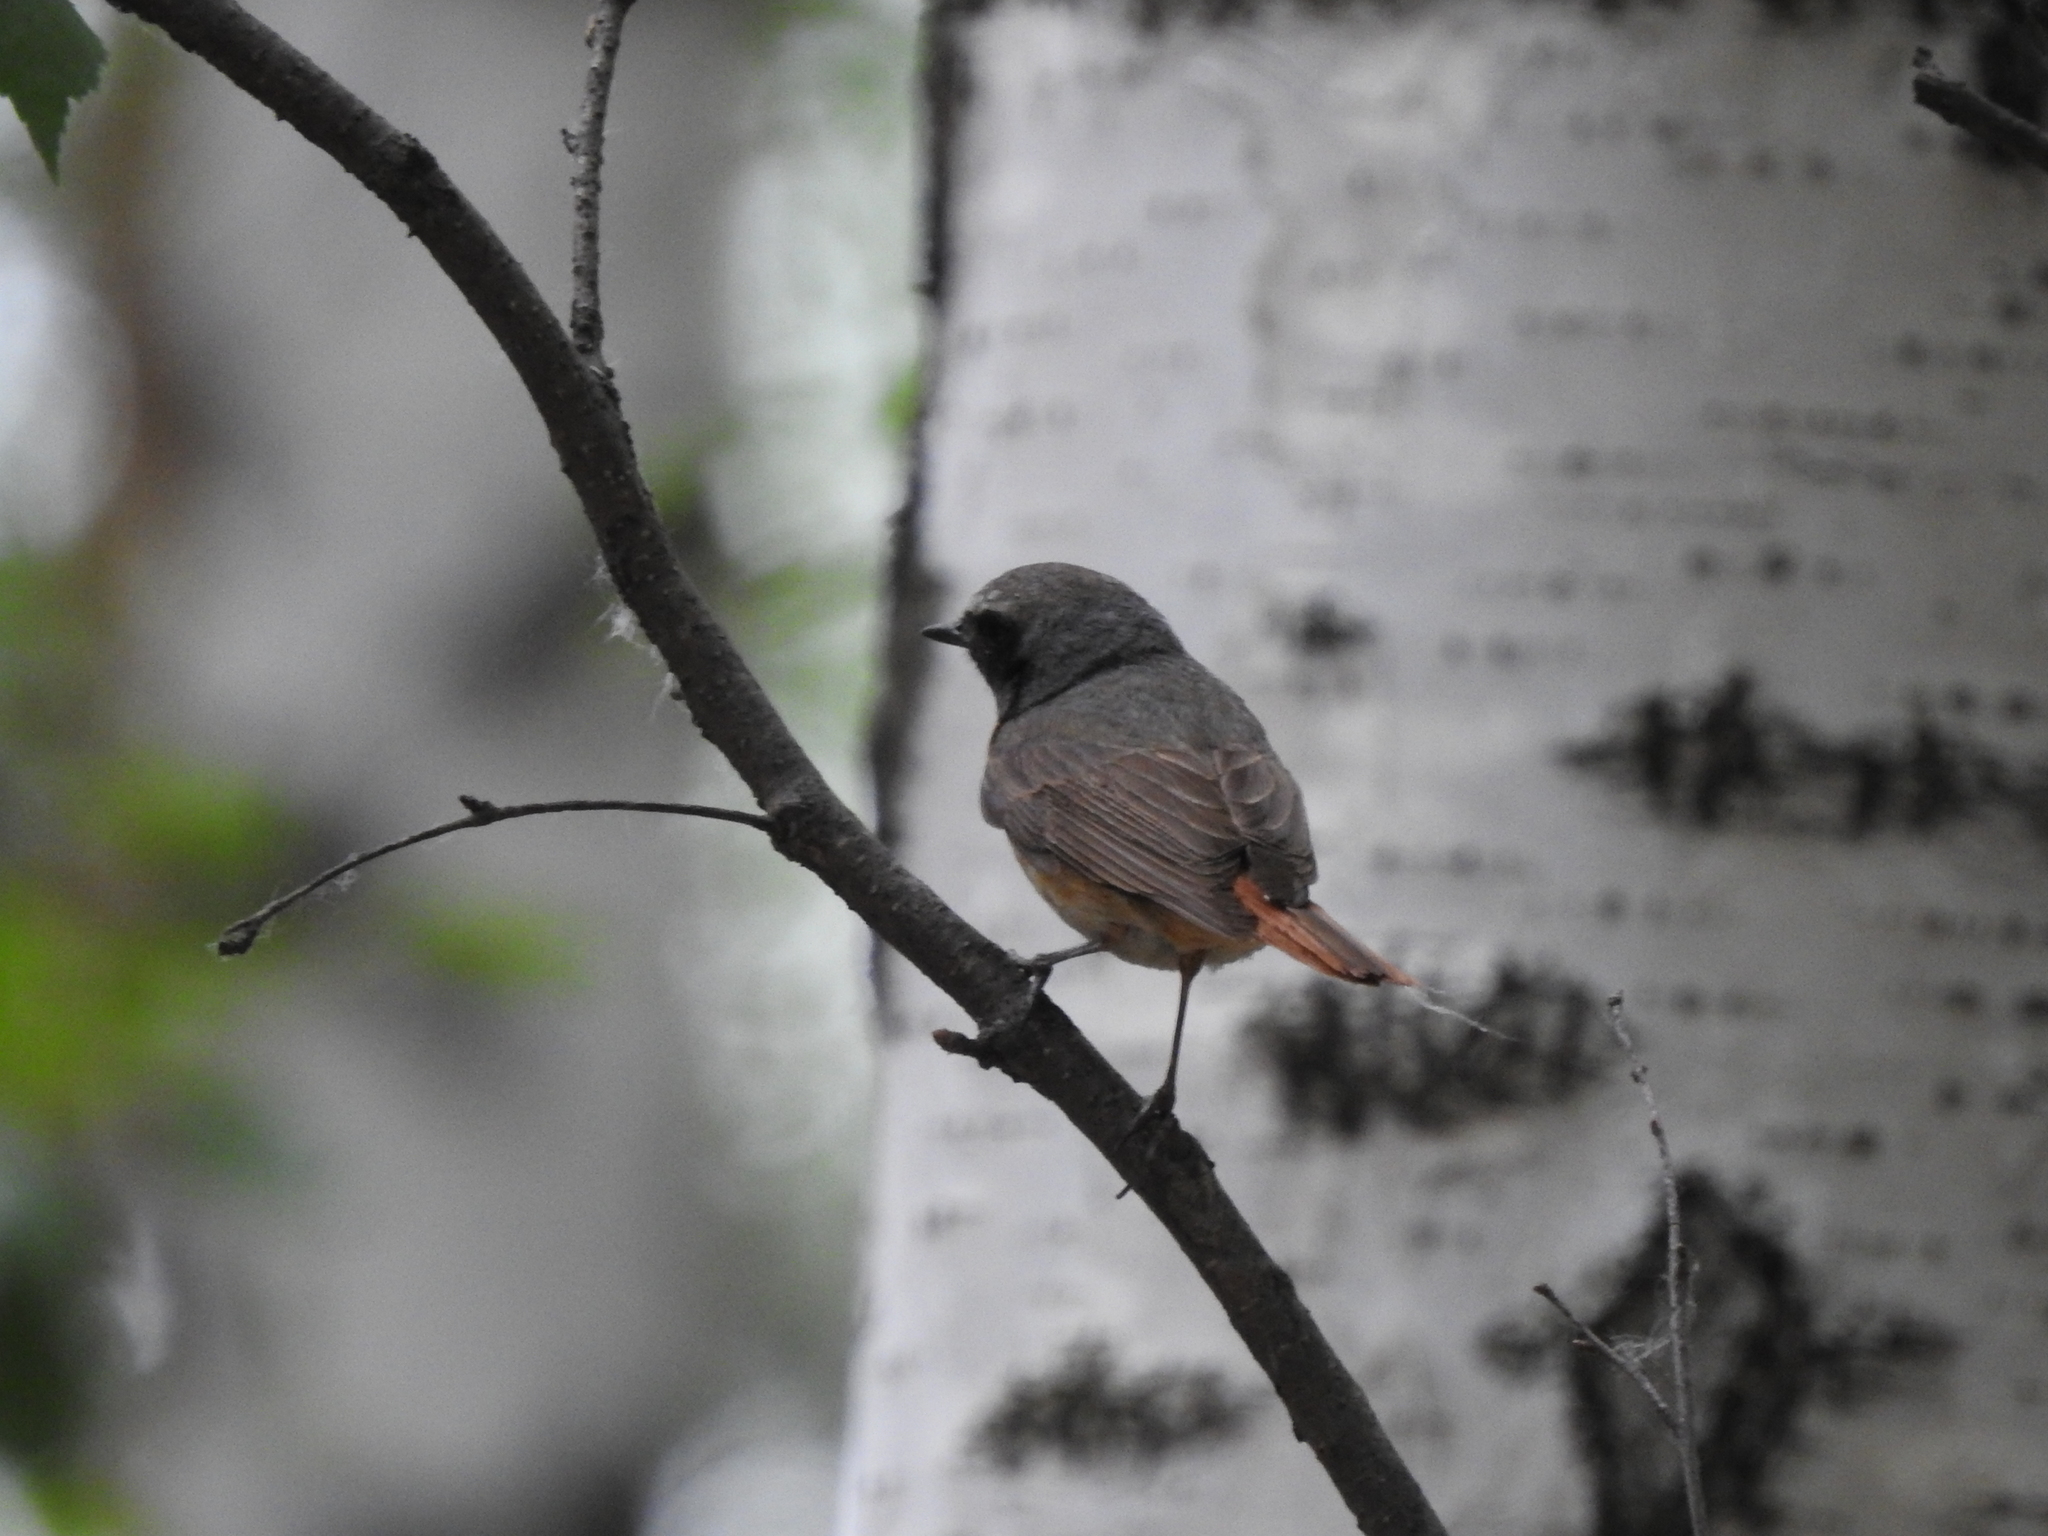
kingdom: Animalia
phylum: Chordata
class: Aves
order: Passeriformes
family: Muscicapidae
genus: Phoenicurus
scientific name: Phoenicurus phoenicurus
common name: Common redstart
